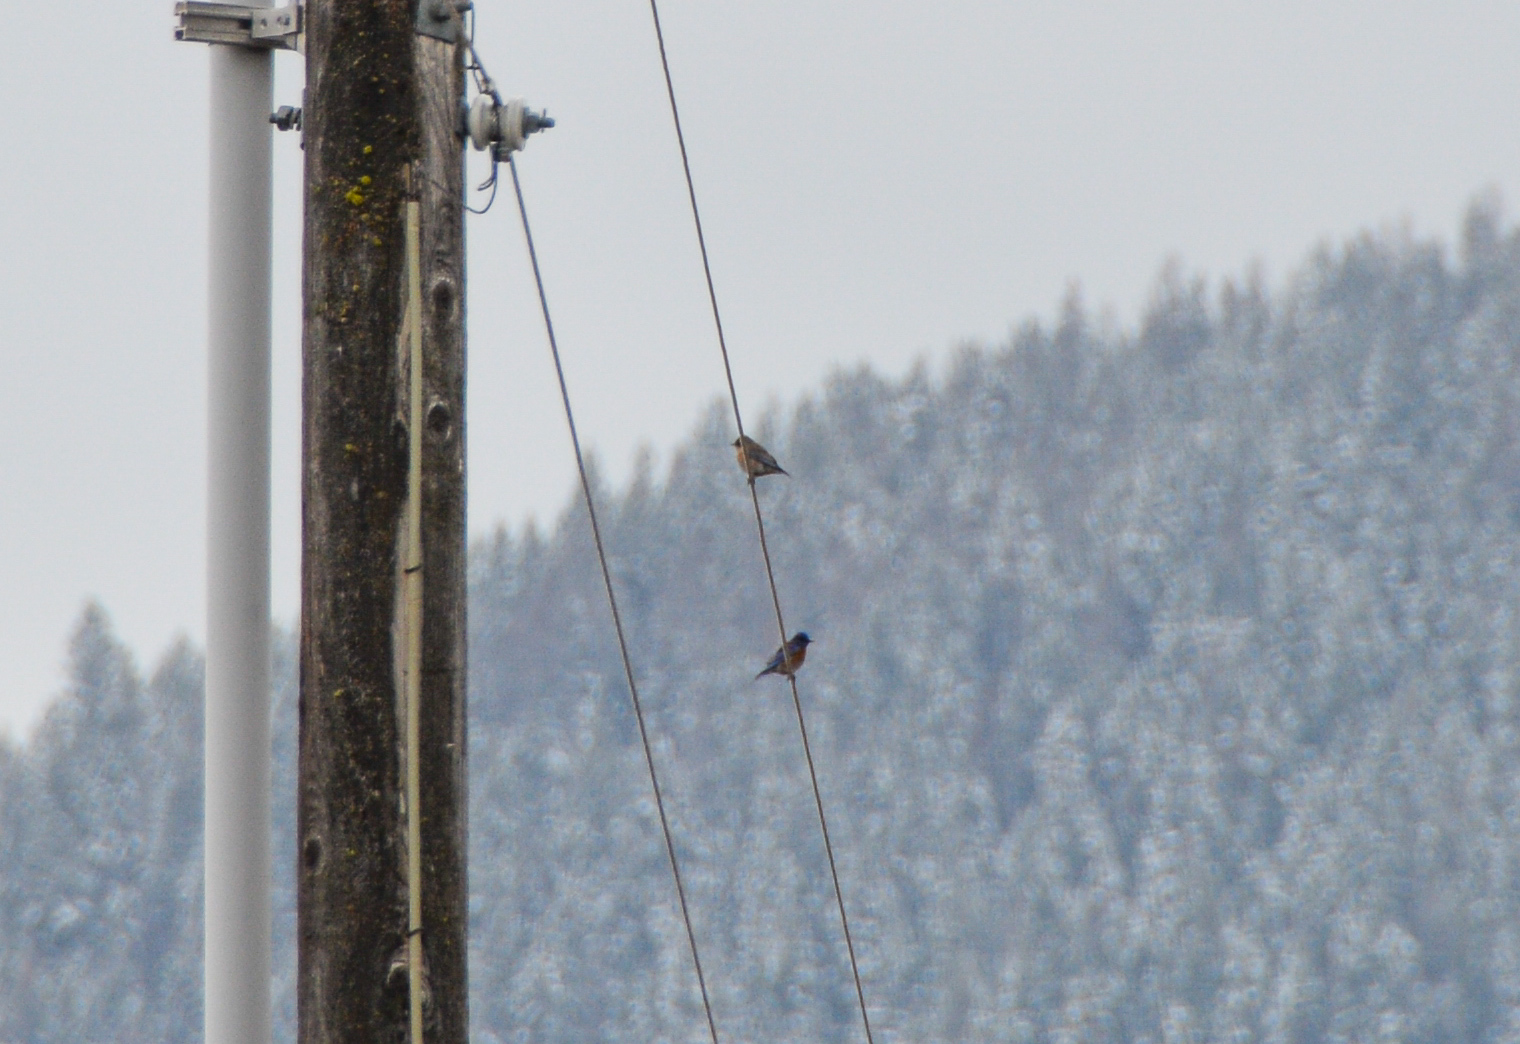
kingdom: Animalia
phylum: Chordata
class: Aves
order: Passeriformes
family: Turdidae
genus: Sialia
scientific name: Sialia mexicana
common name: Western bluebird
